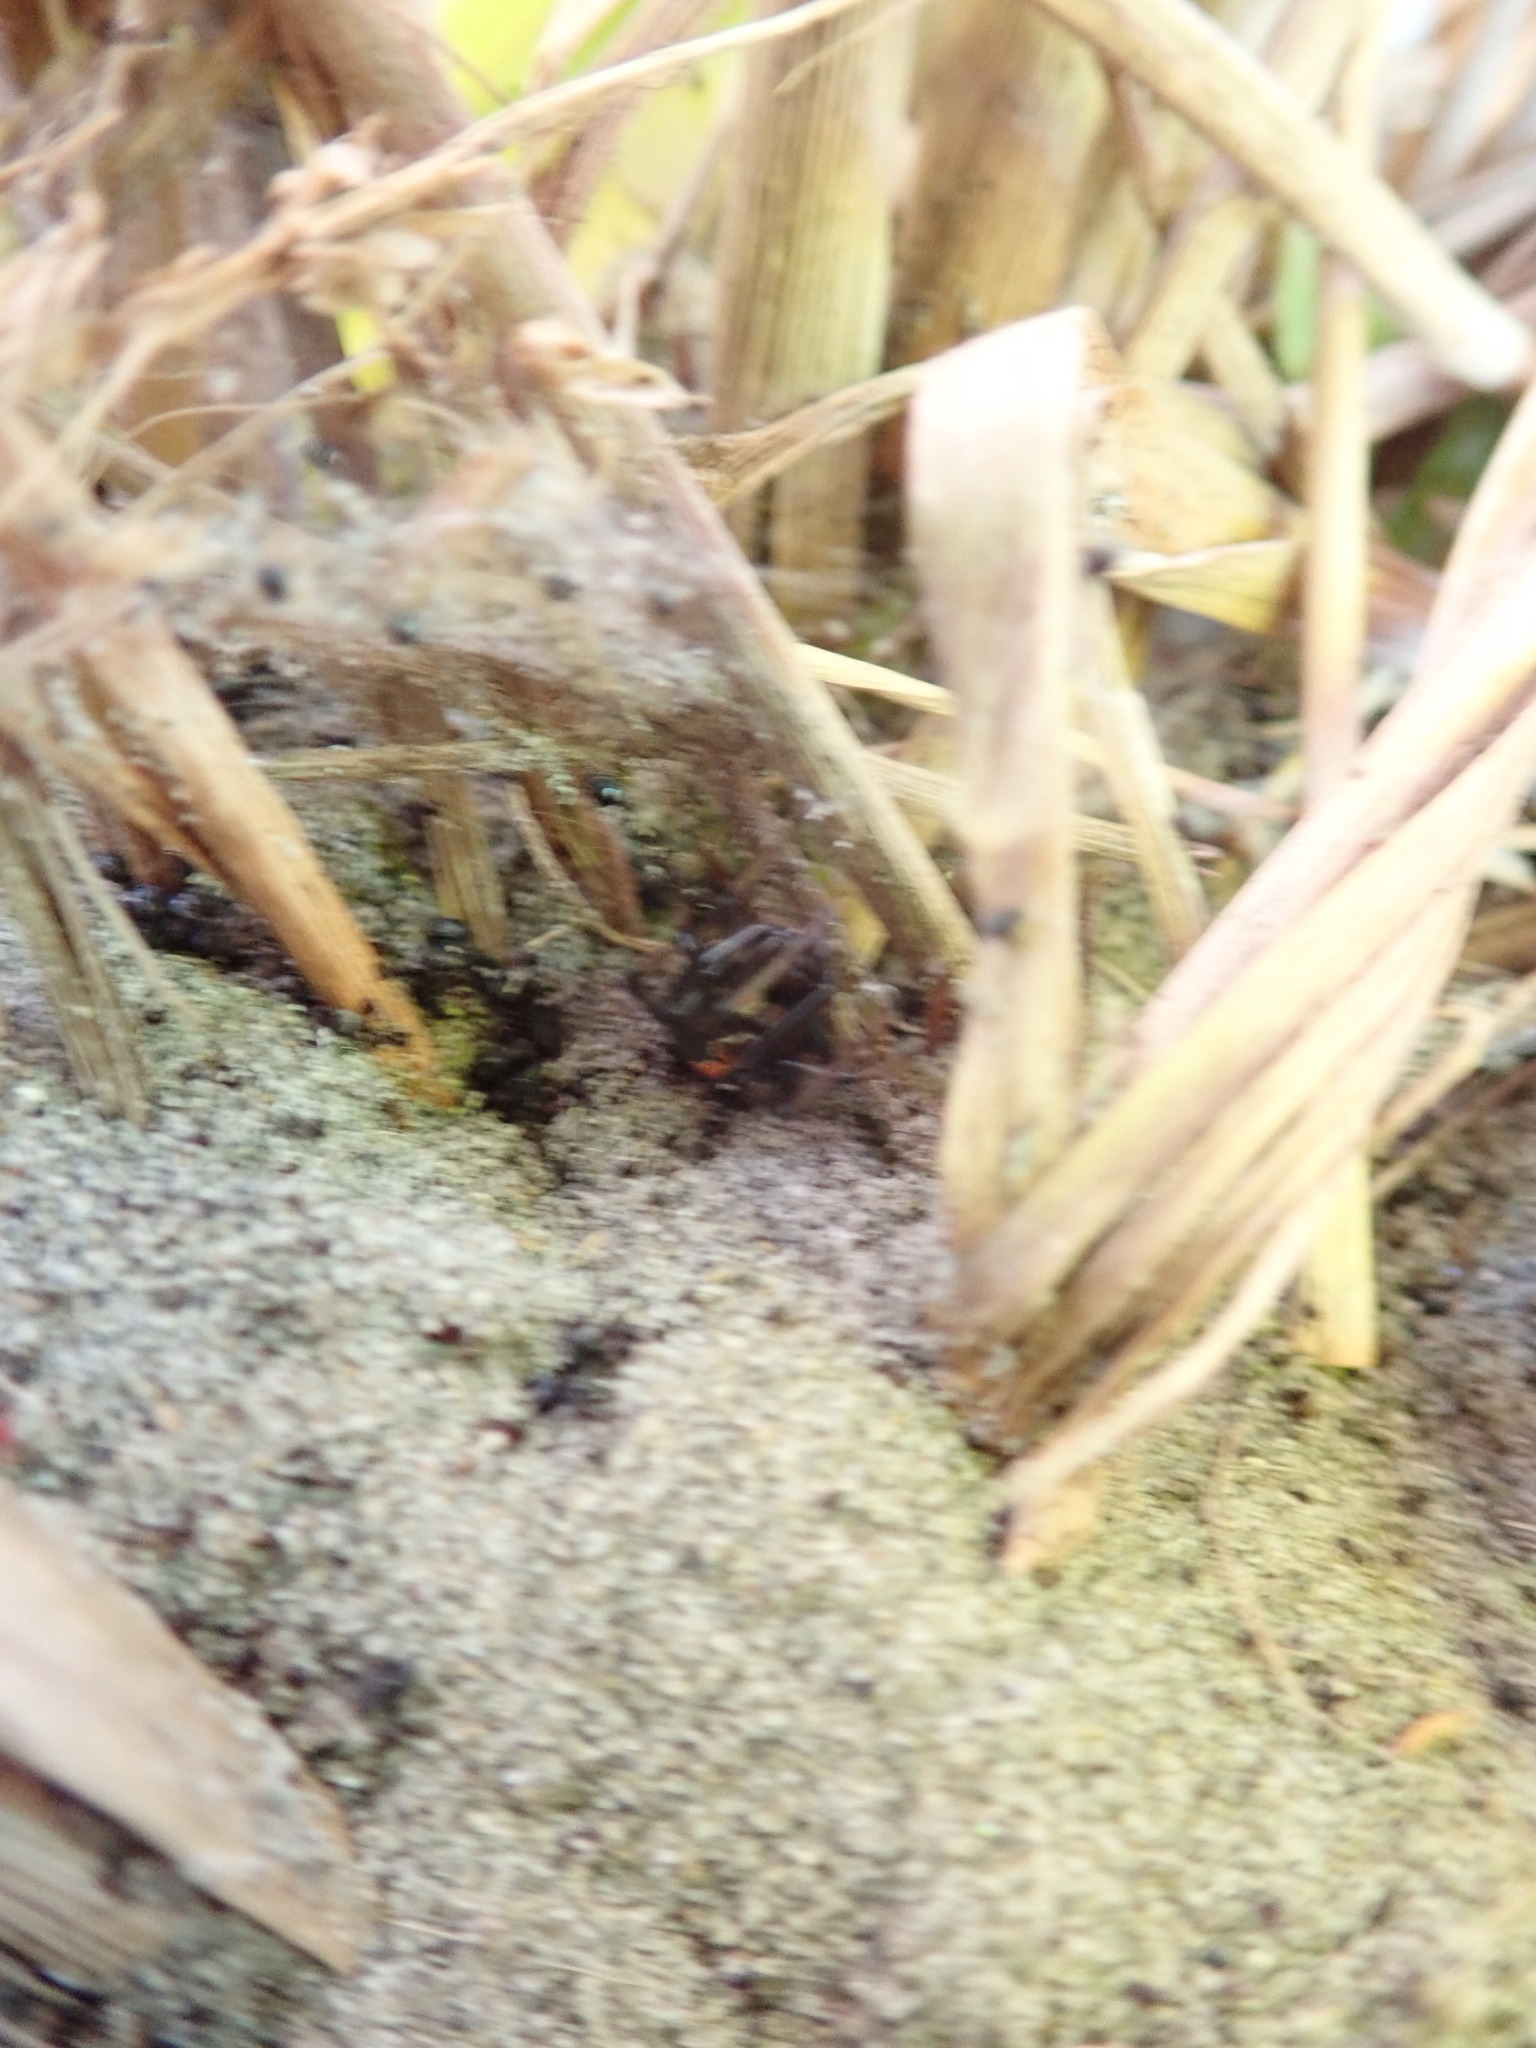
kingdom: Animalia
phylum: Arthropoda
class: Arachnida
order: Araneae
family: Theridiidae
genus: Latrodectus
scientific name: Latrodectus katipo
